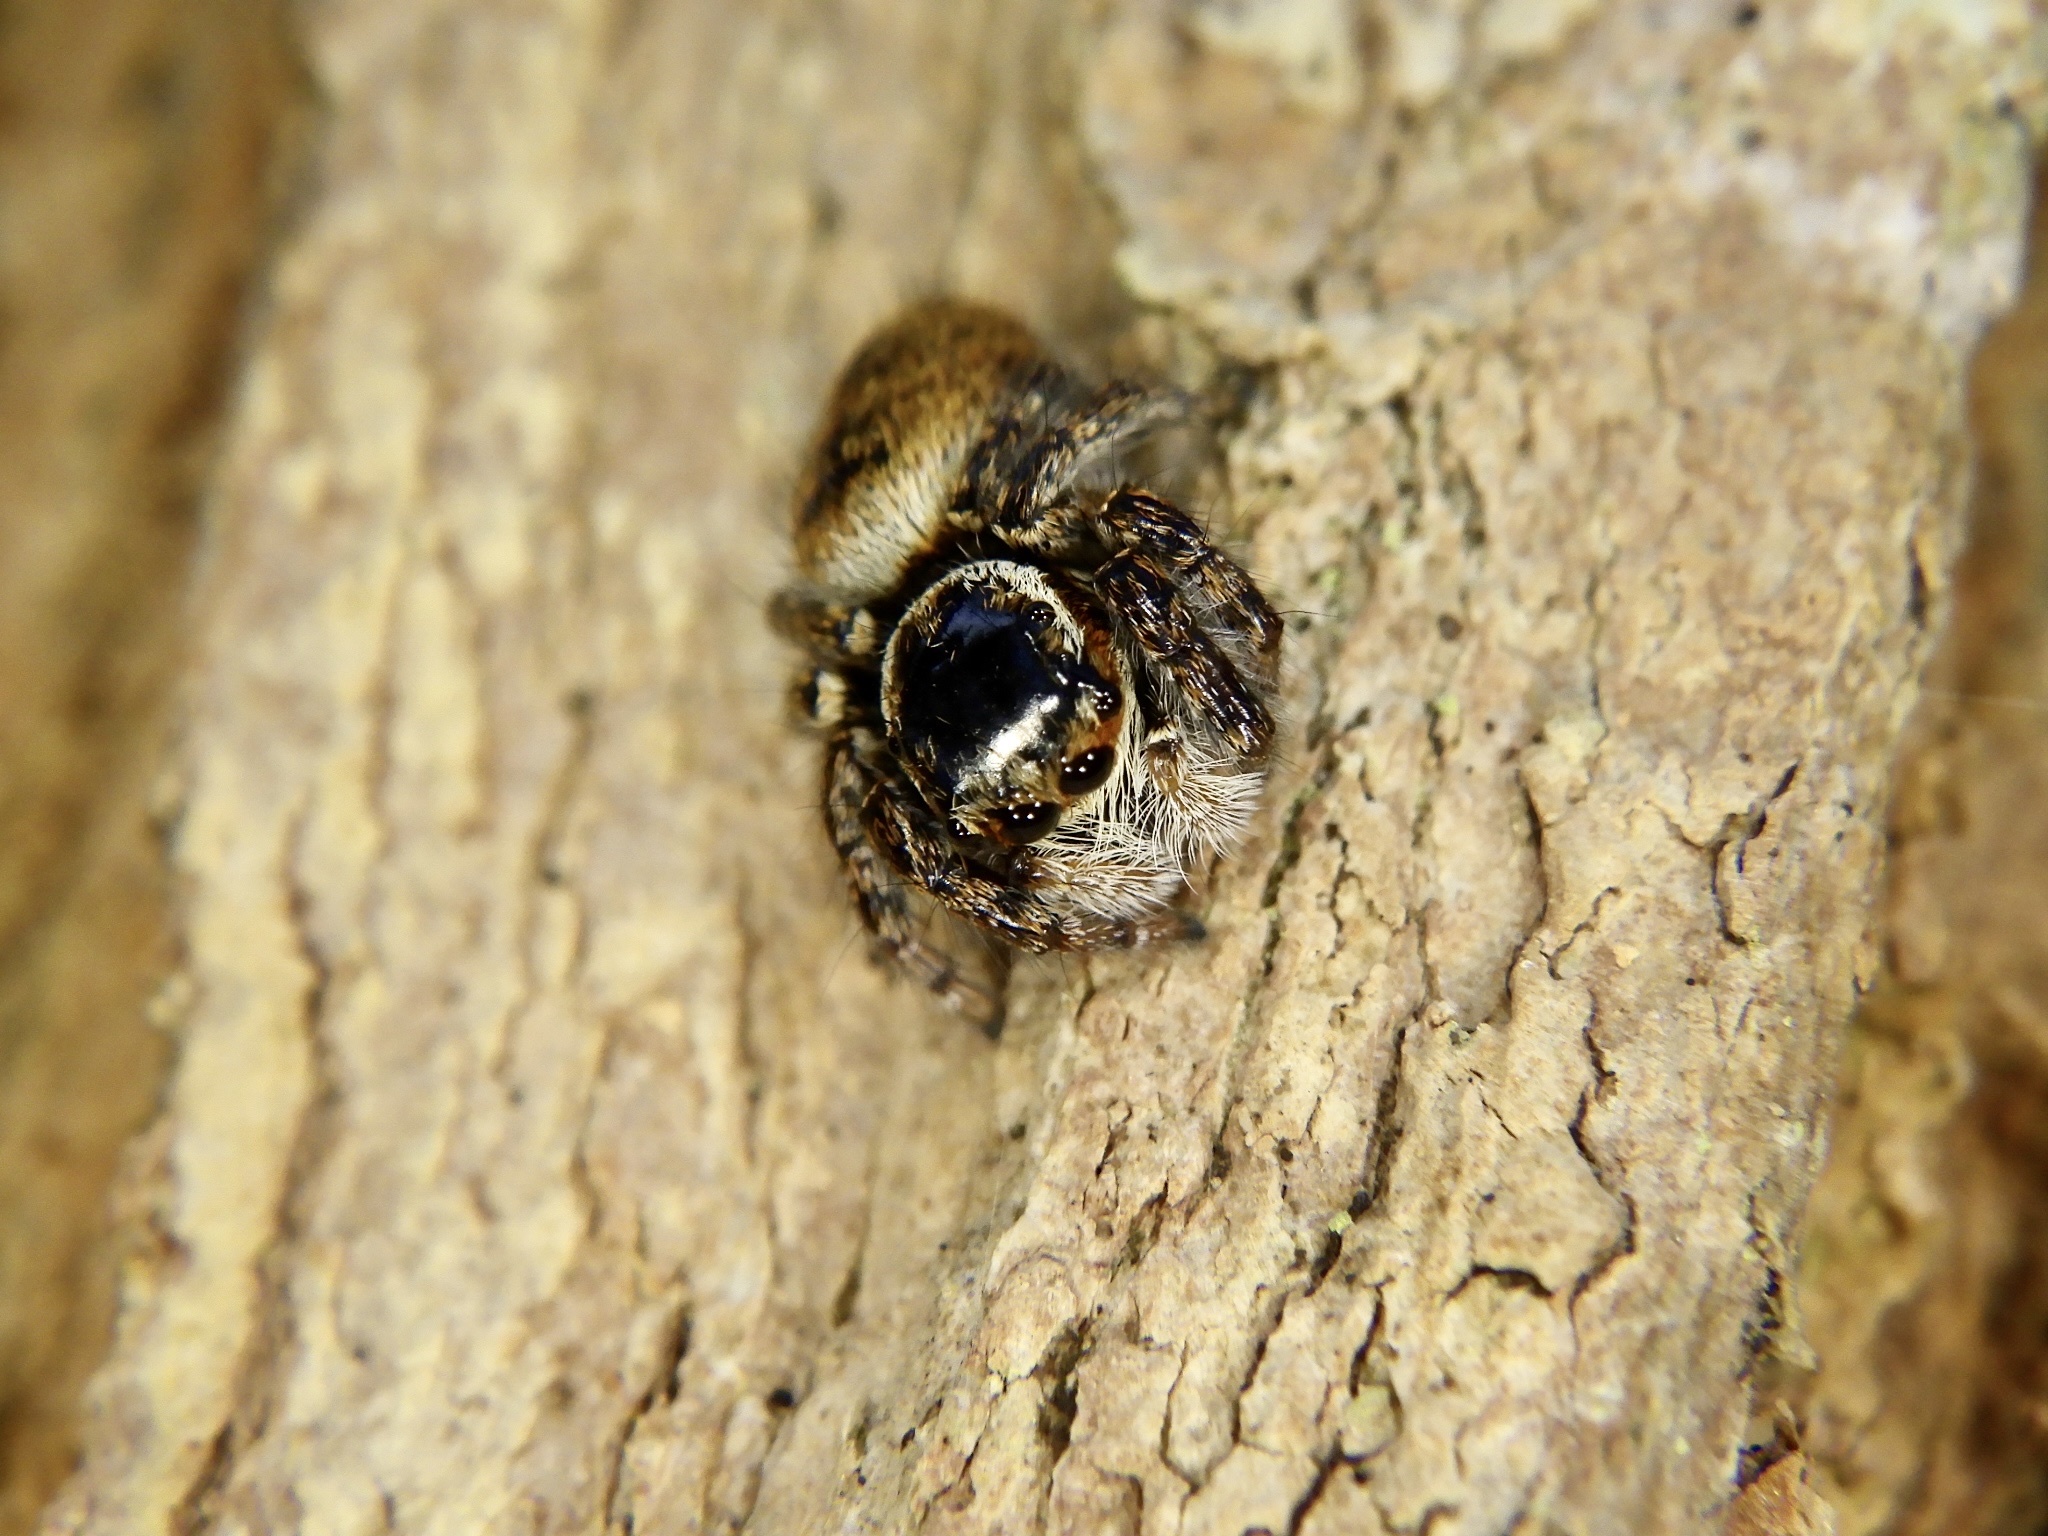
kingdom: Animalia
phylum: Arthropoda
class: Arachnida
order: Araneae
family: Salticidae
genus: Carrhotus
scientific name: Carrhotus xanthogramma
